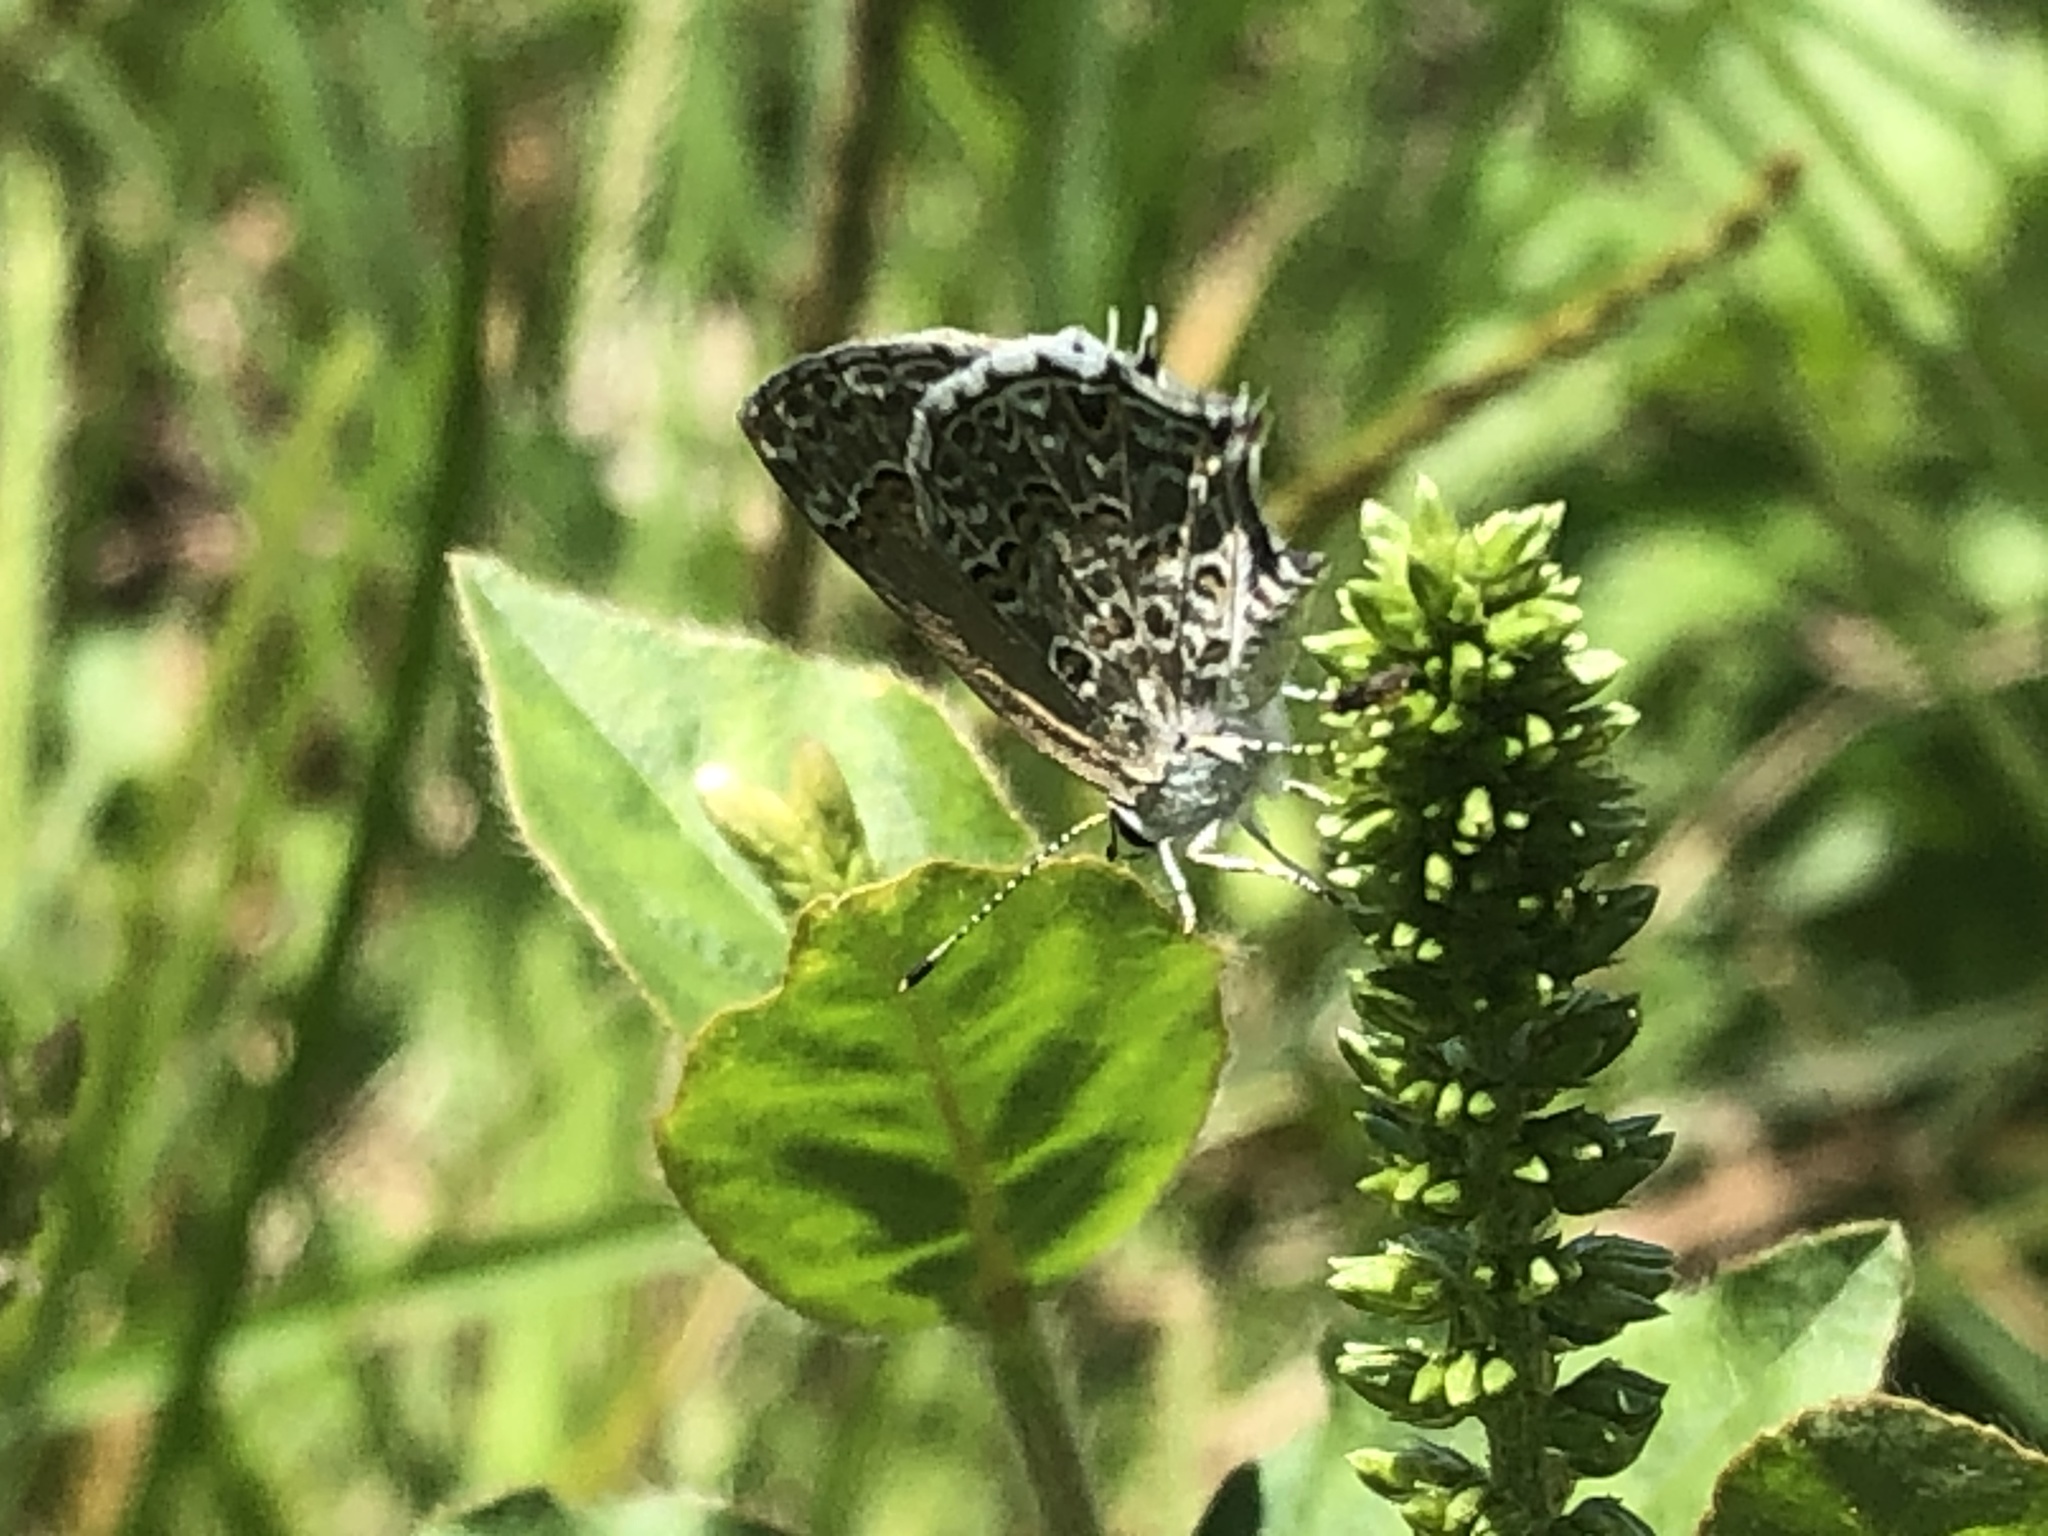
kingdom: Animalia
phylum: Arthropoda
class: Insecta
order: Lepidoptera
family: Lycaenidae
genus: Strymon
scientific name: Strymon astiocha
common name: Gray-spotted scrub-hairstreak
